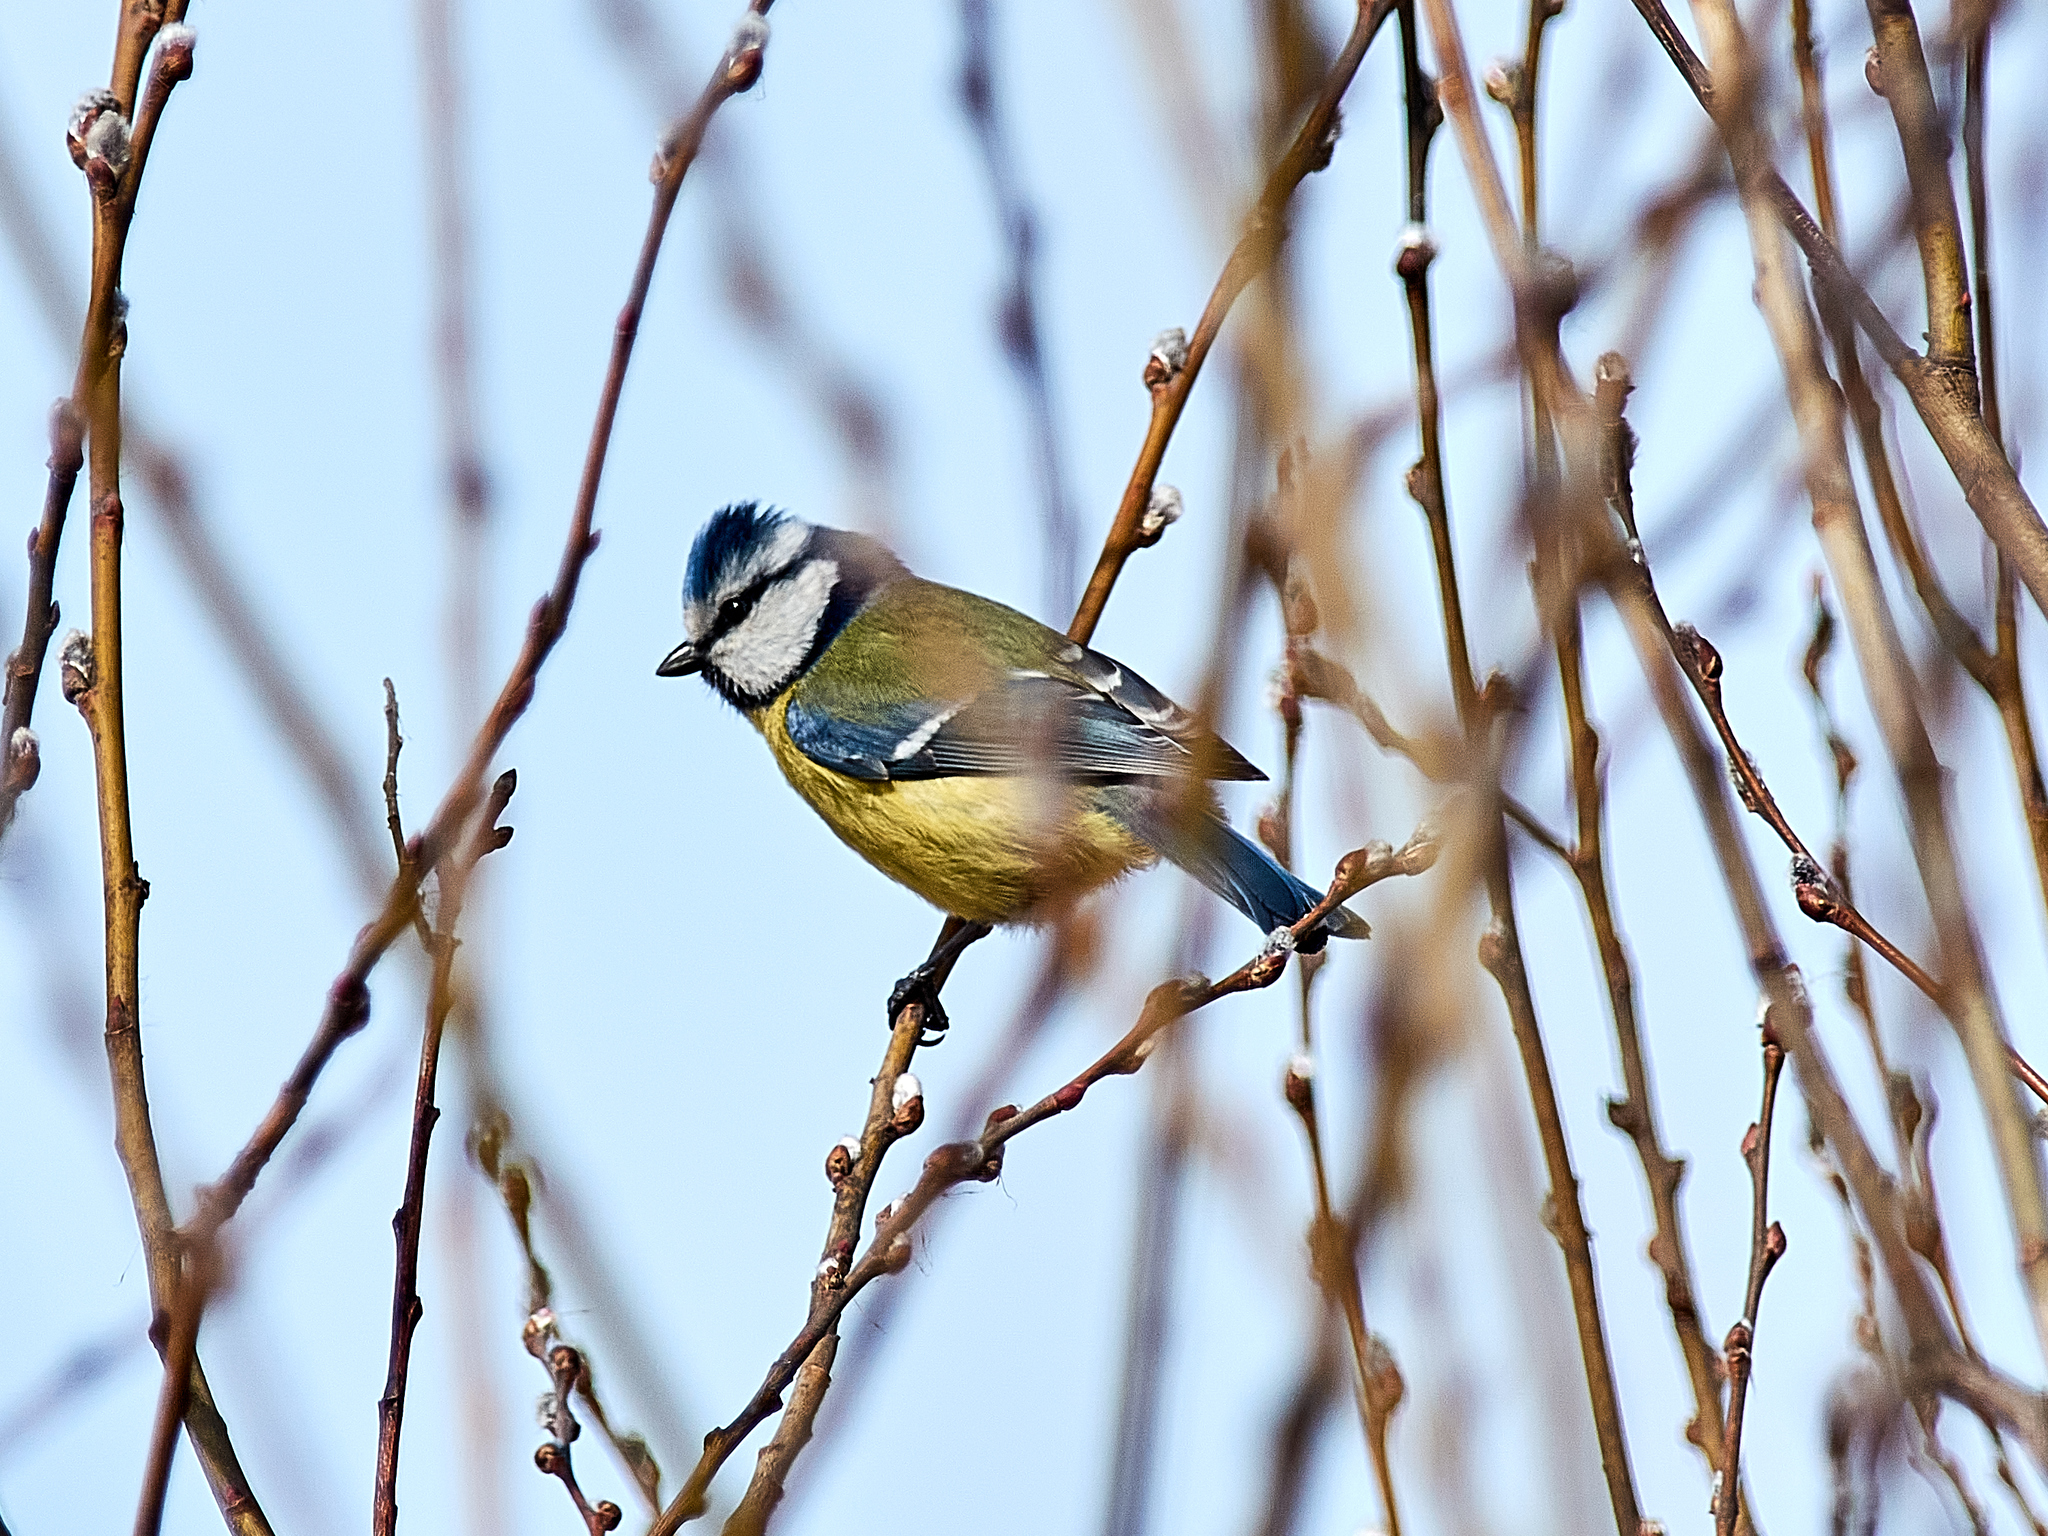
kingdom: Animalia
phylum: Chordata
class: Aves
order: Passeriformes
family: Paridae
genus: Cyanistes
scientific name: Cyanistes caeruleus
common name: Eurasian blue tit
